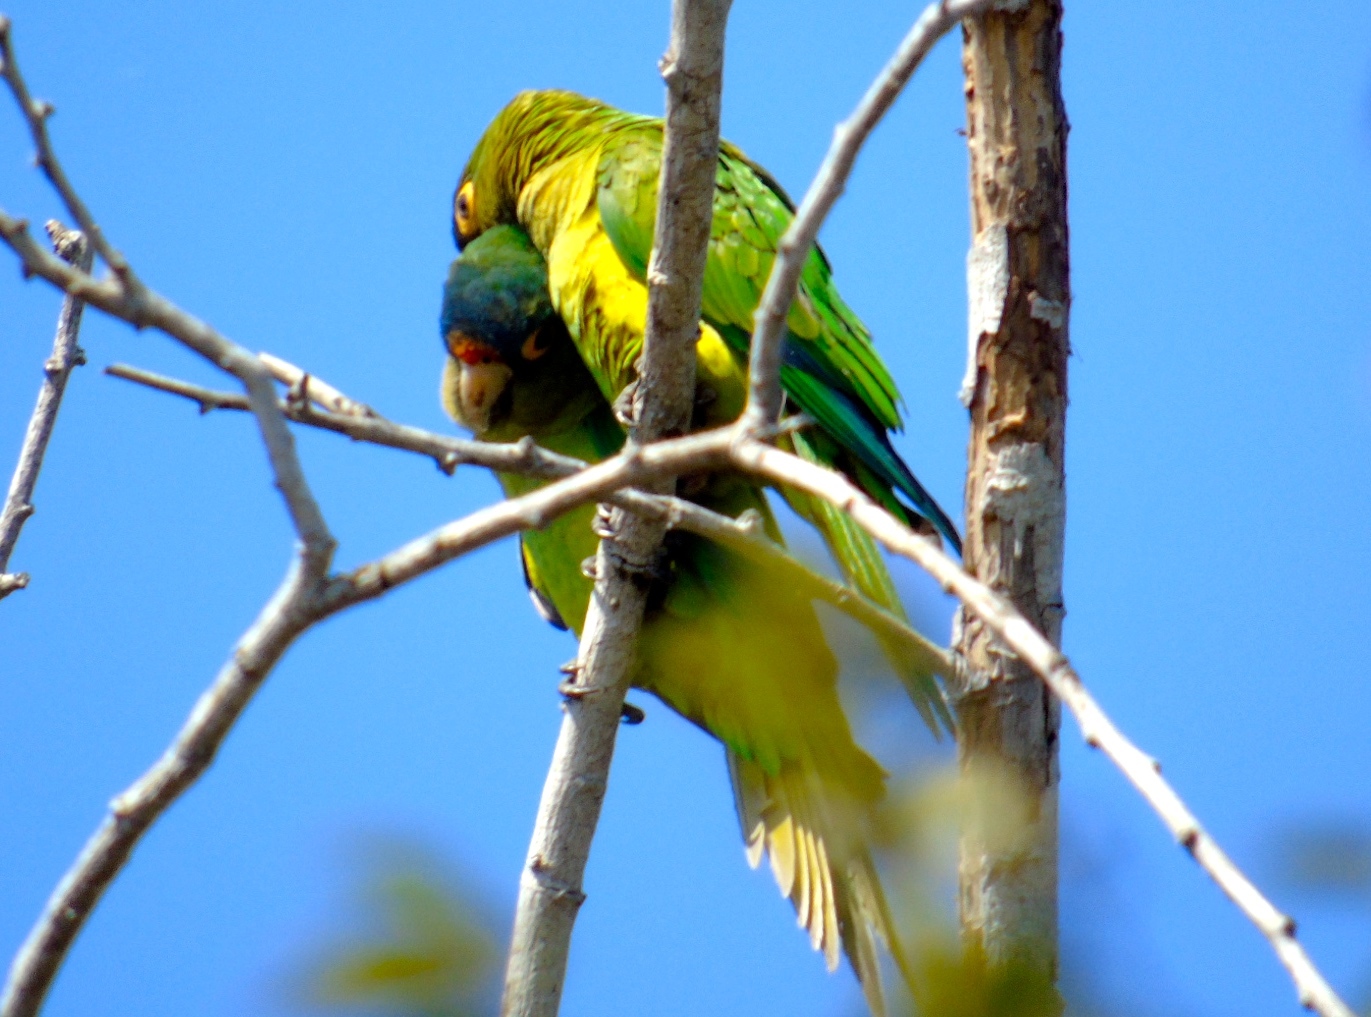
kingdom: Animalia
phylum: Chordata
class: Aves
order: Psittaciformes
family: Psittacidae
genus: Aratinga
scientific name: Aratinga canicularis
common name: Orange-fronted parakeet
